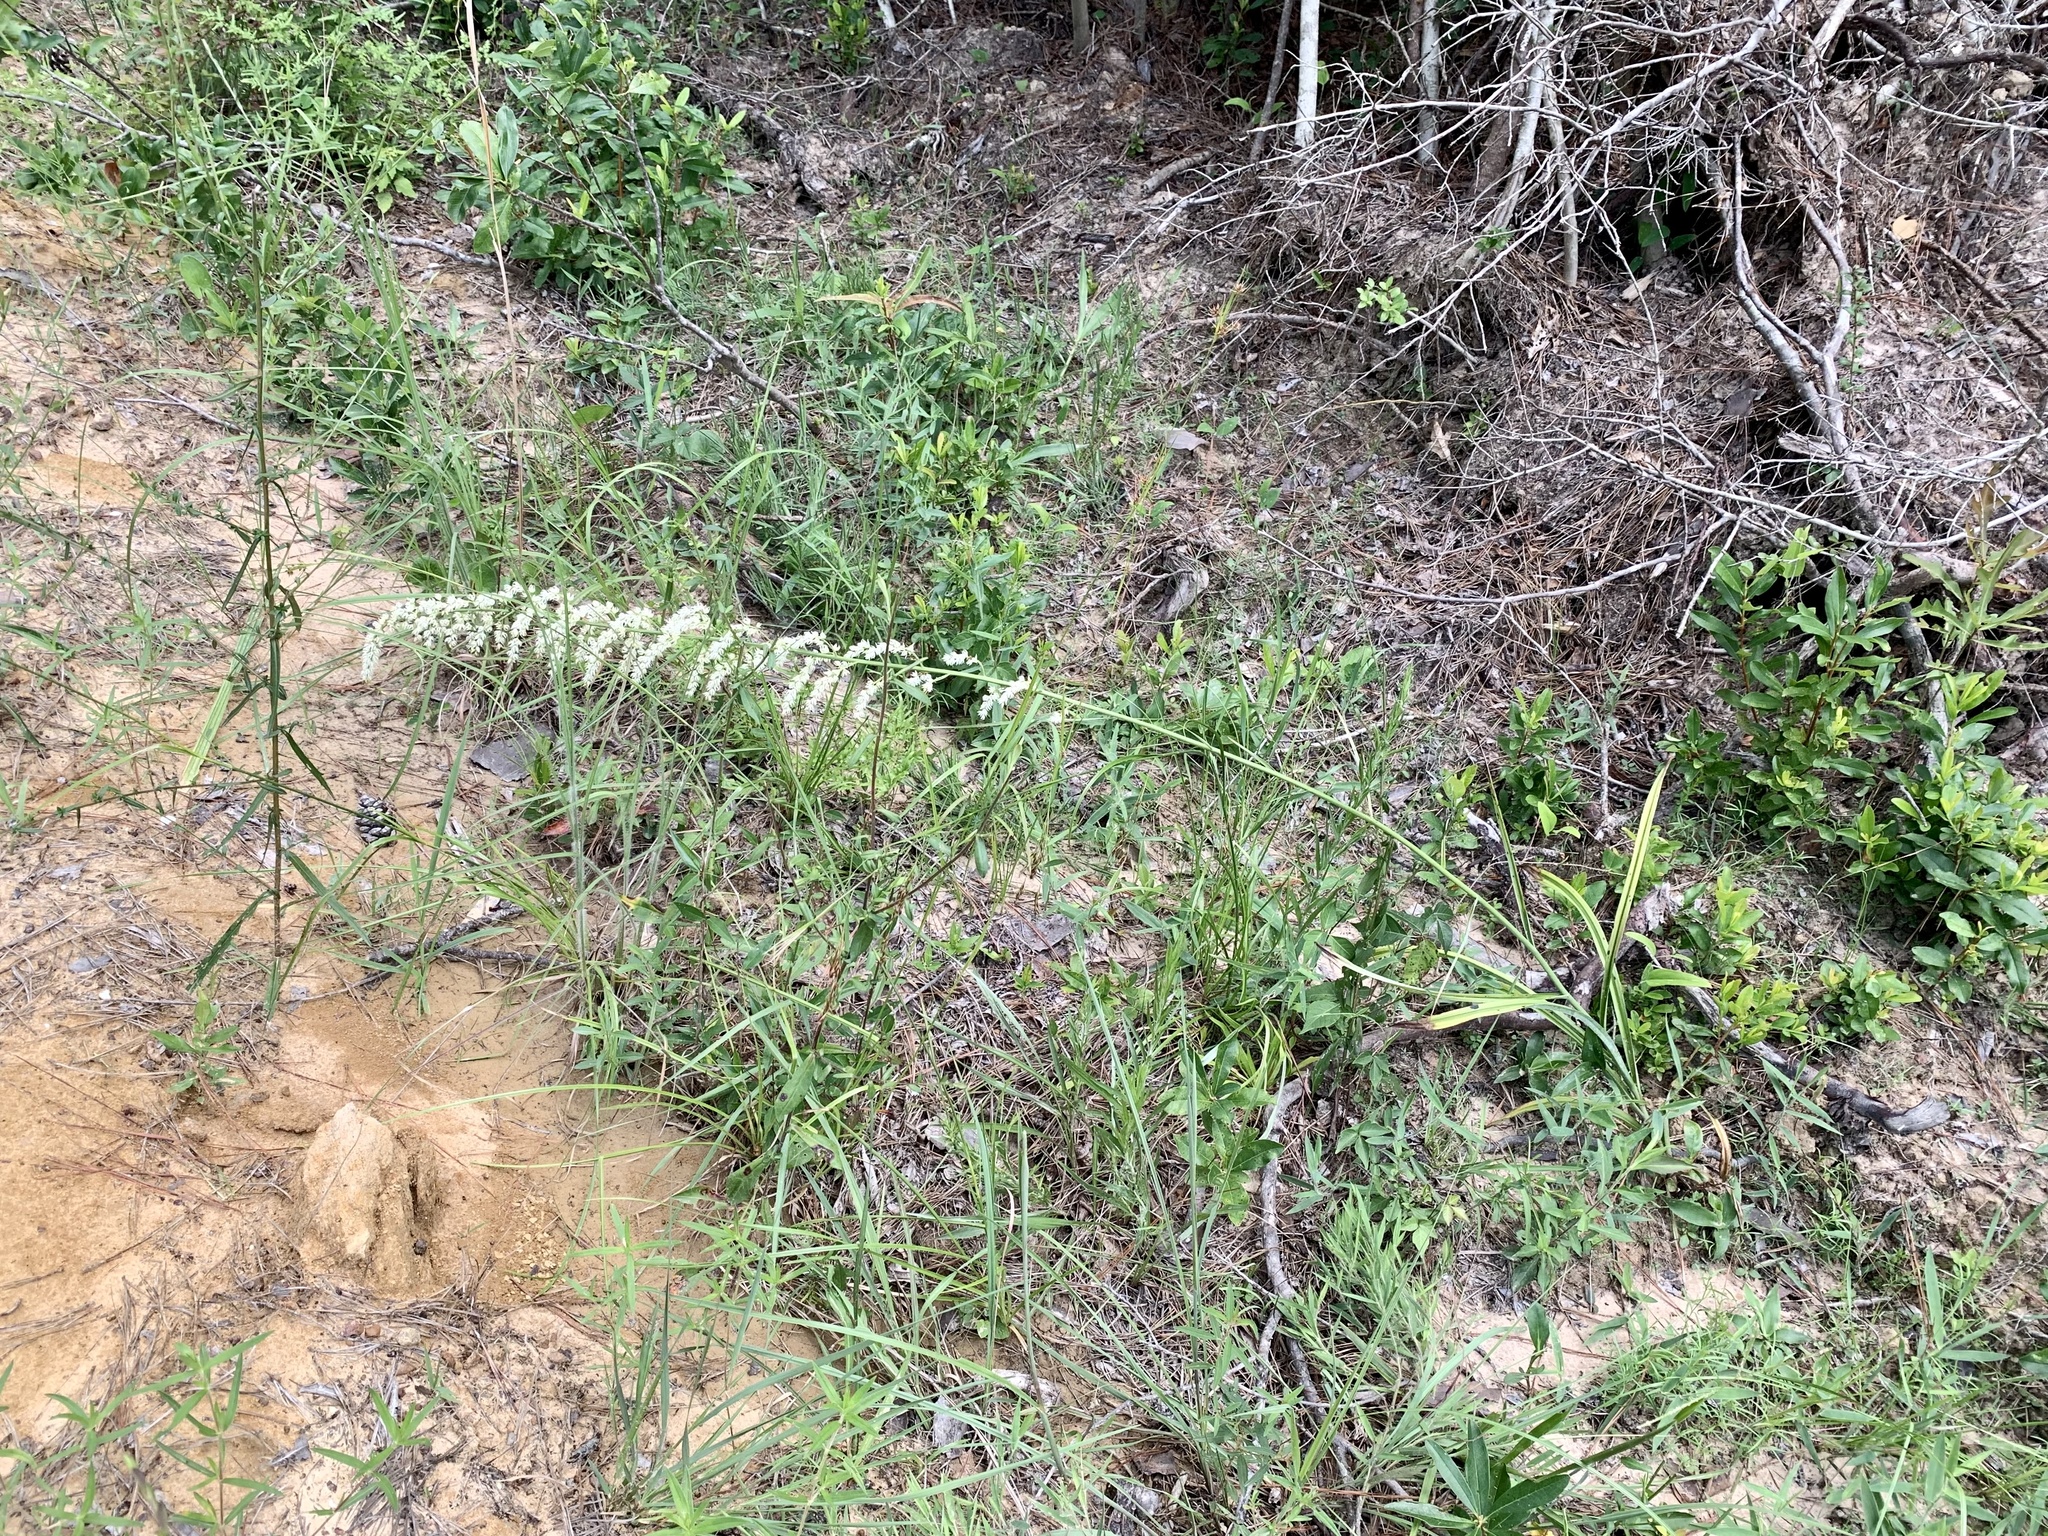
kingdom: Plantae
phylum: Tracheophyta
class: Liliopsida
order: Liliales
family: Melanthiaceae
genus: Stenanthium
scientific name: Stenanthium gramineum
